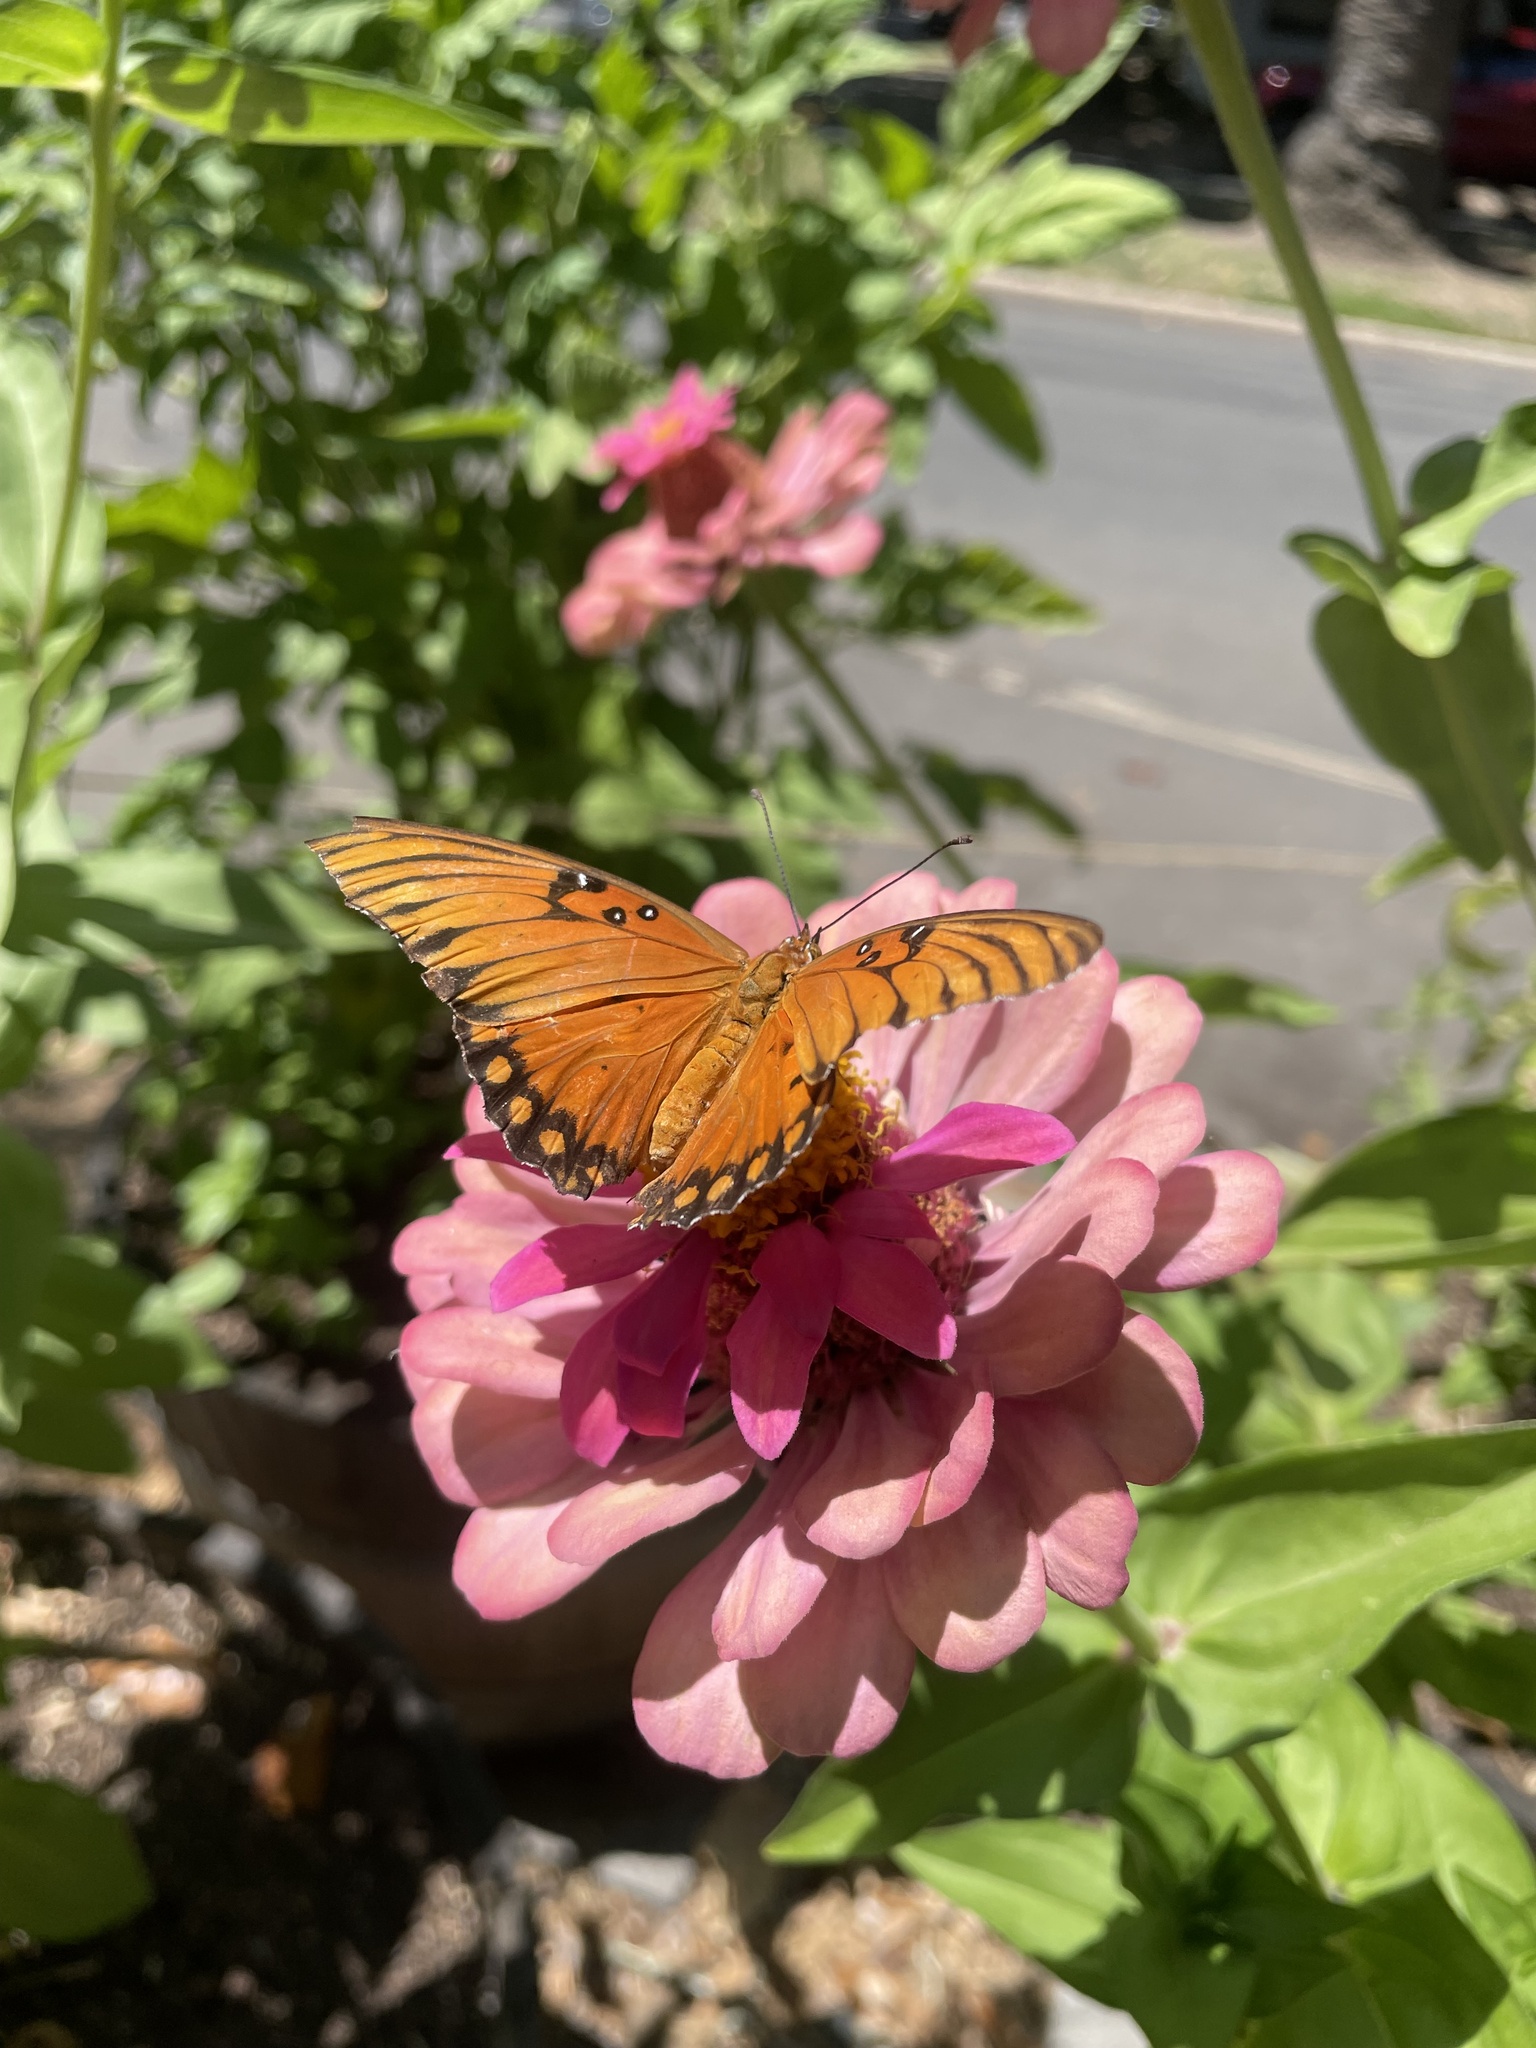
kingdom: Animalia
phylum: Arthropoda
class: Insecta
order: Lepidoptera
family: Nymphalidae
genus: Dione
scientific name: Dione vanillae
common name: Gulf fritillary
